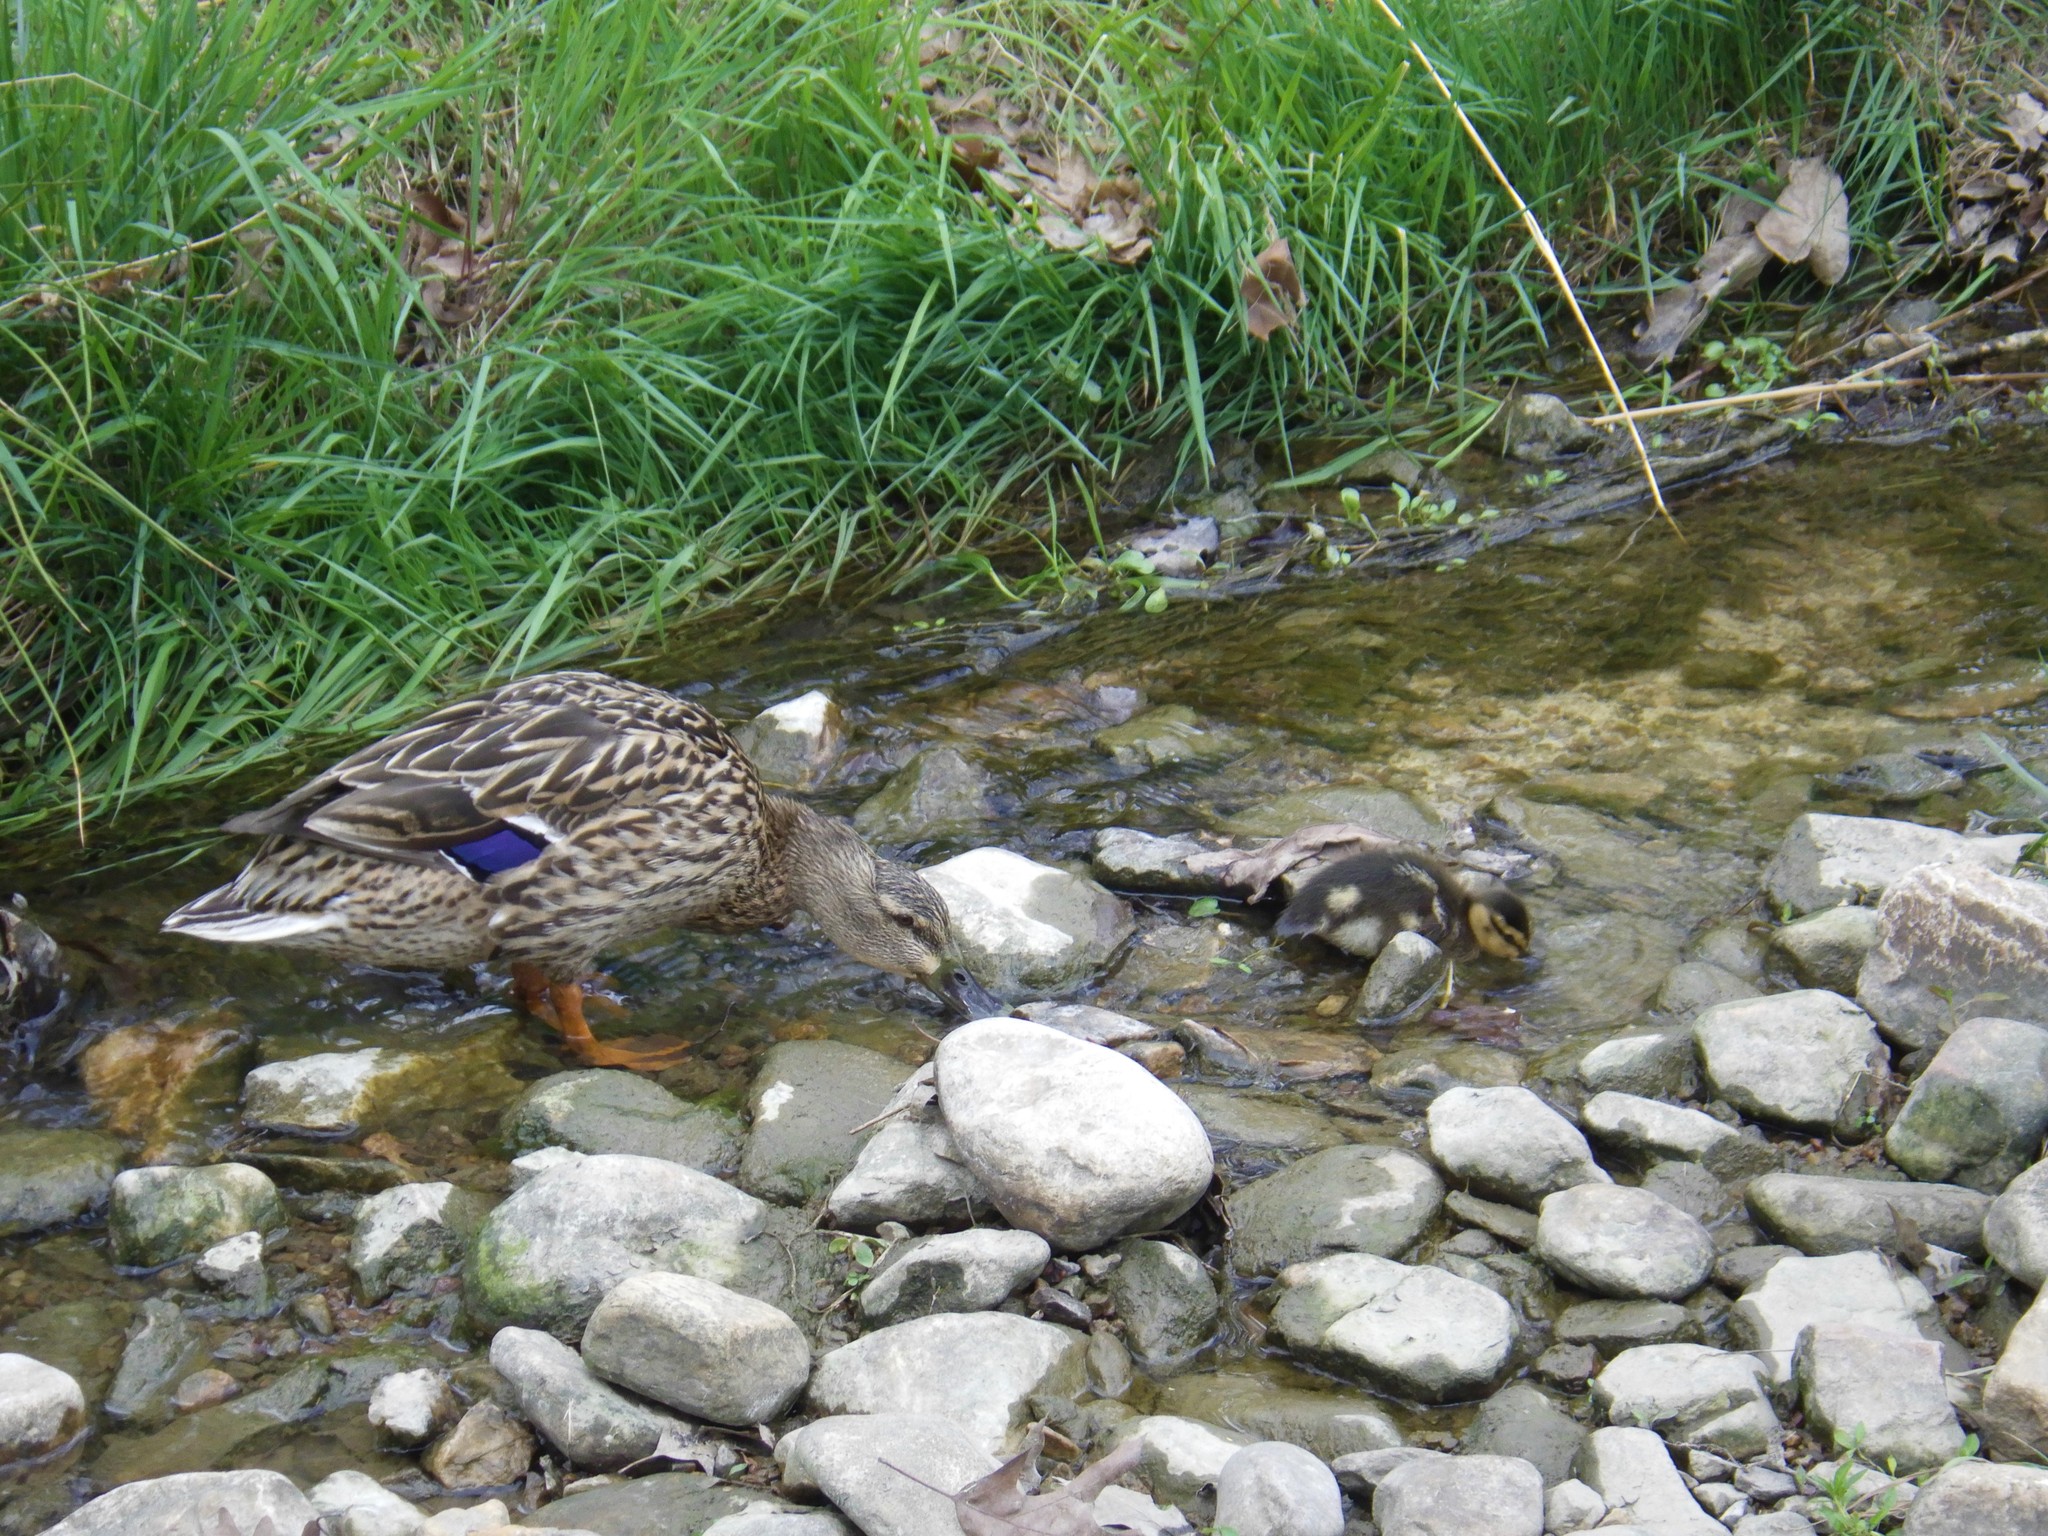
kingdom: Animalia
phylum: Chordata
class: Aves
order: Anseriformes
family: Anatidae
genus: Anas
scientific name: Anas platyrhynchos
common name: Mallard
